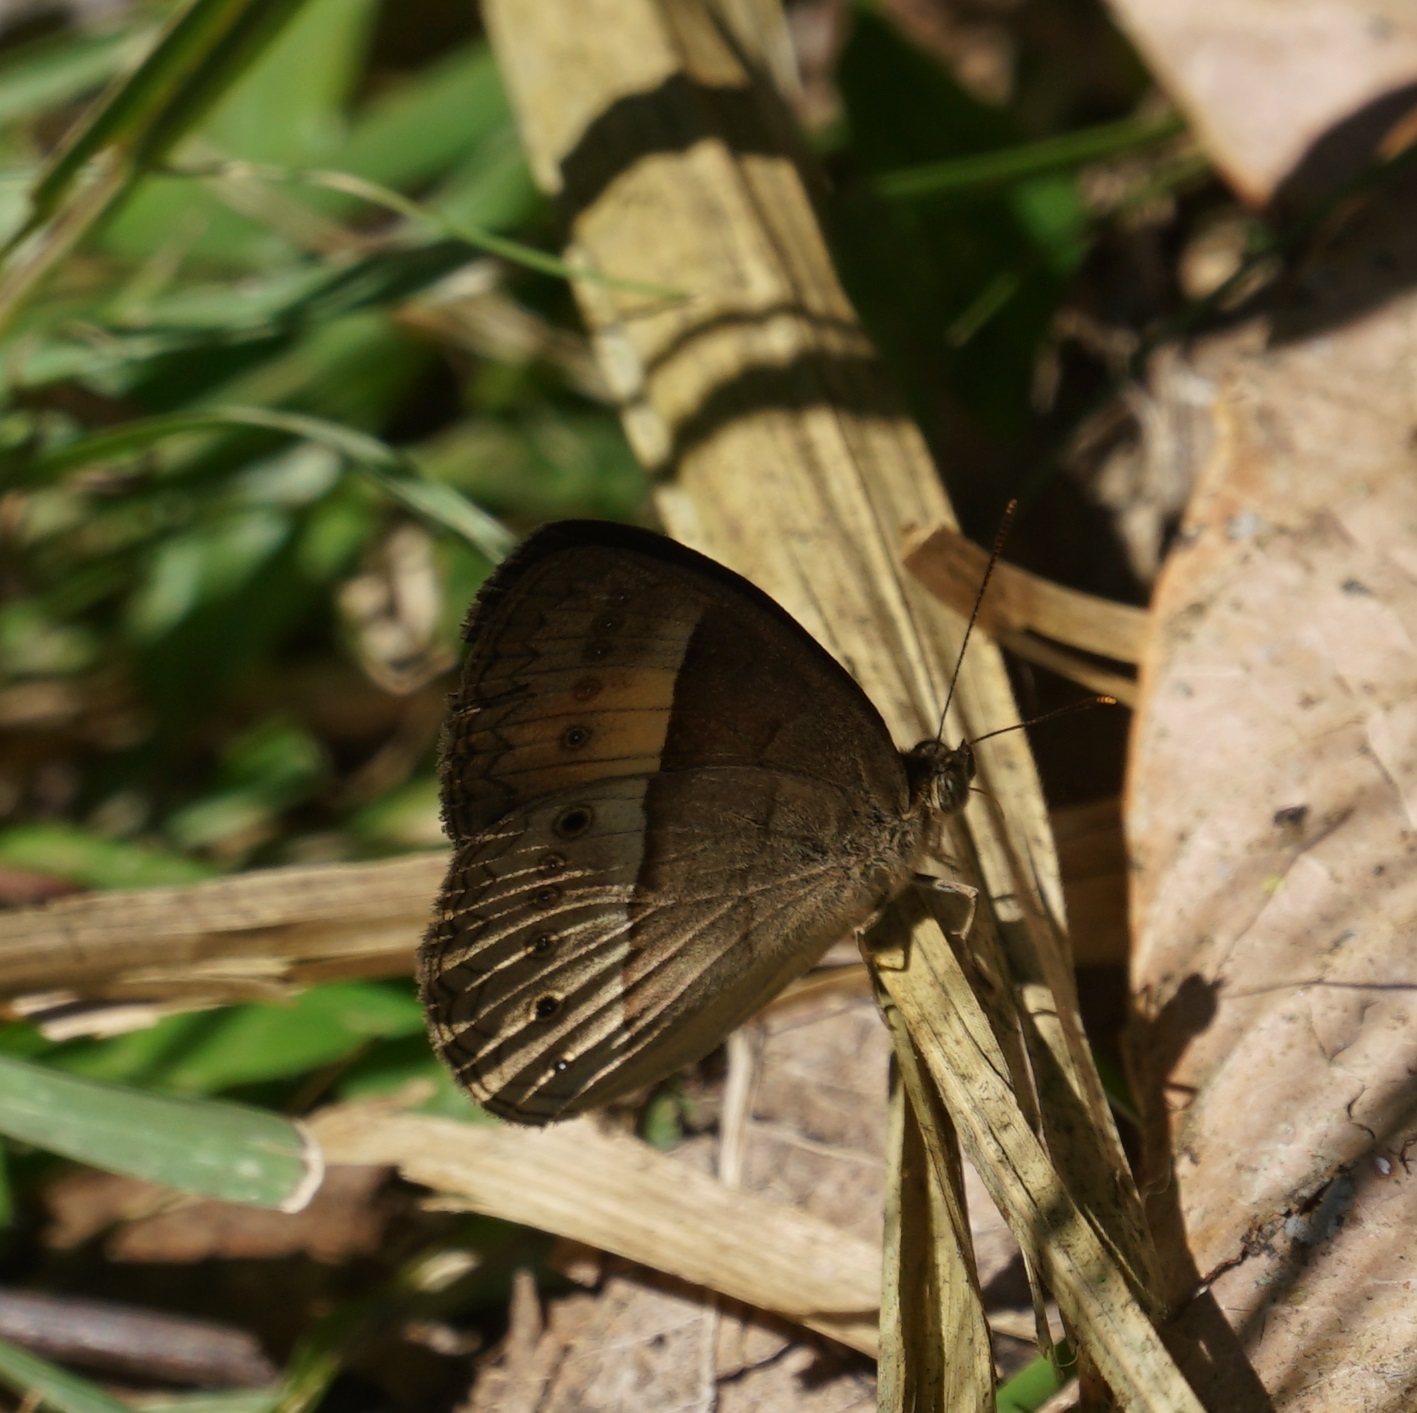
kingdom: Animalia
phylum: Arthropoda
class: Insecta
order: Lepidoptera
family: Nymphalidae
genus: Mycalesis
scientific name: Mycalesis terminus
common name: Orange bushbrown
